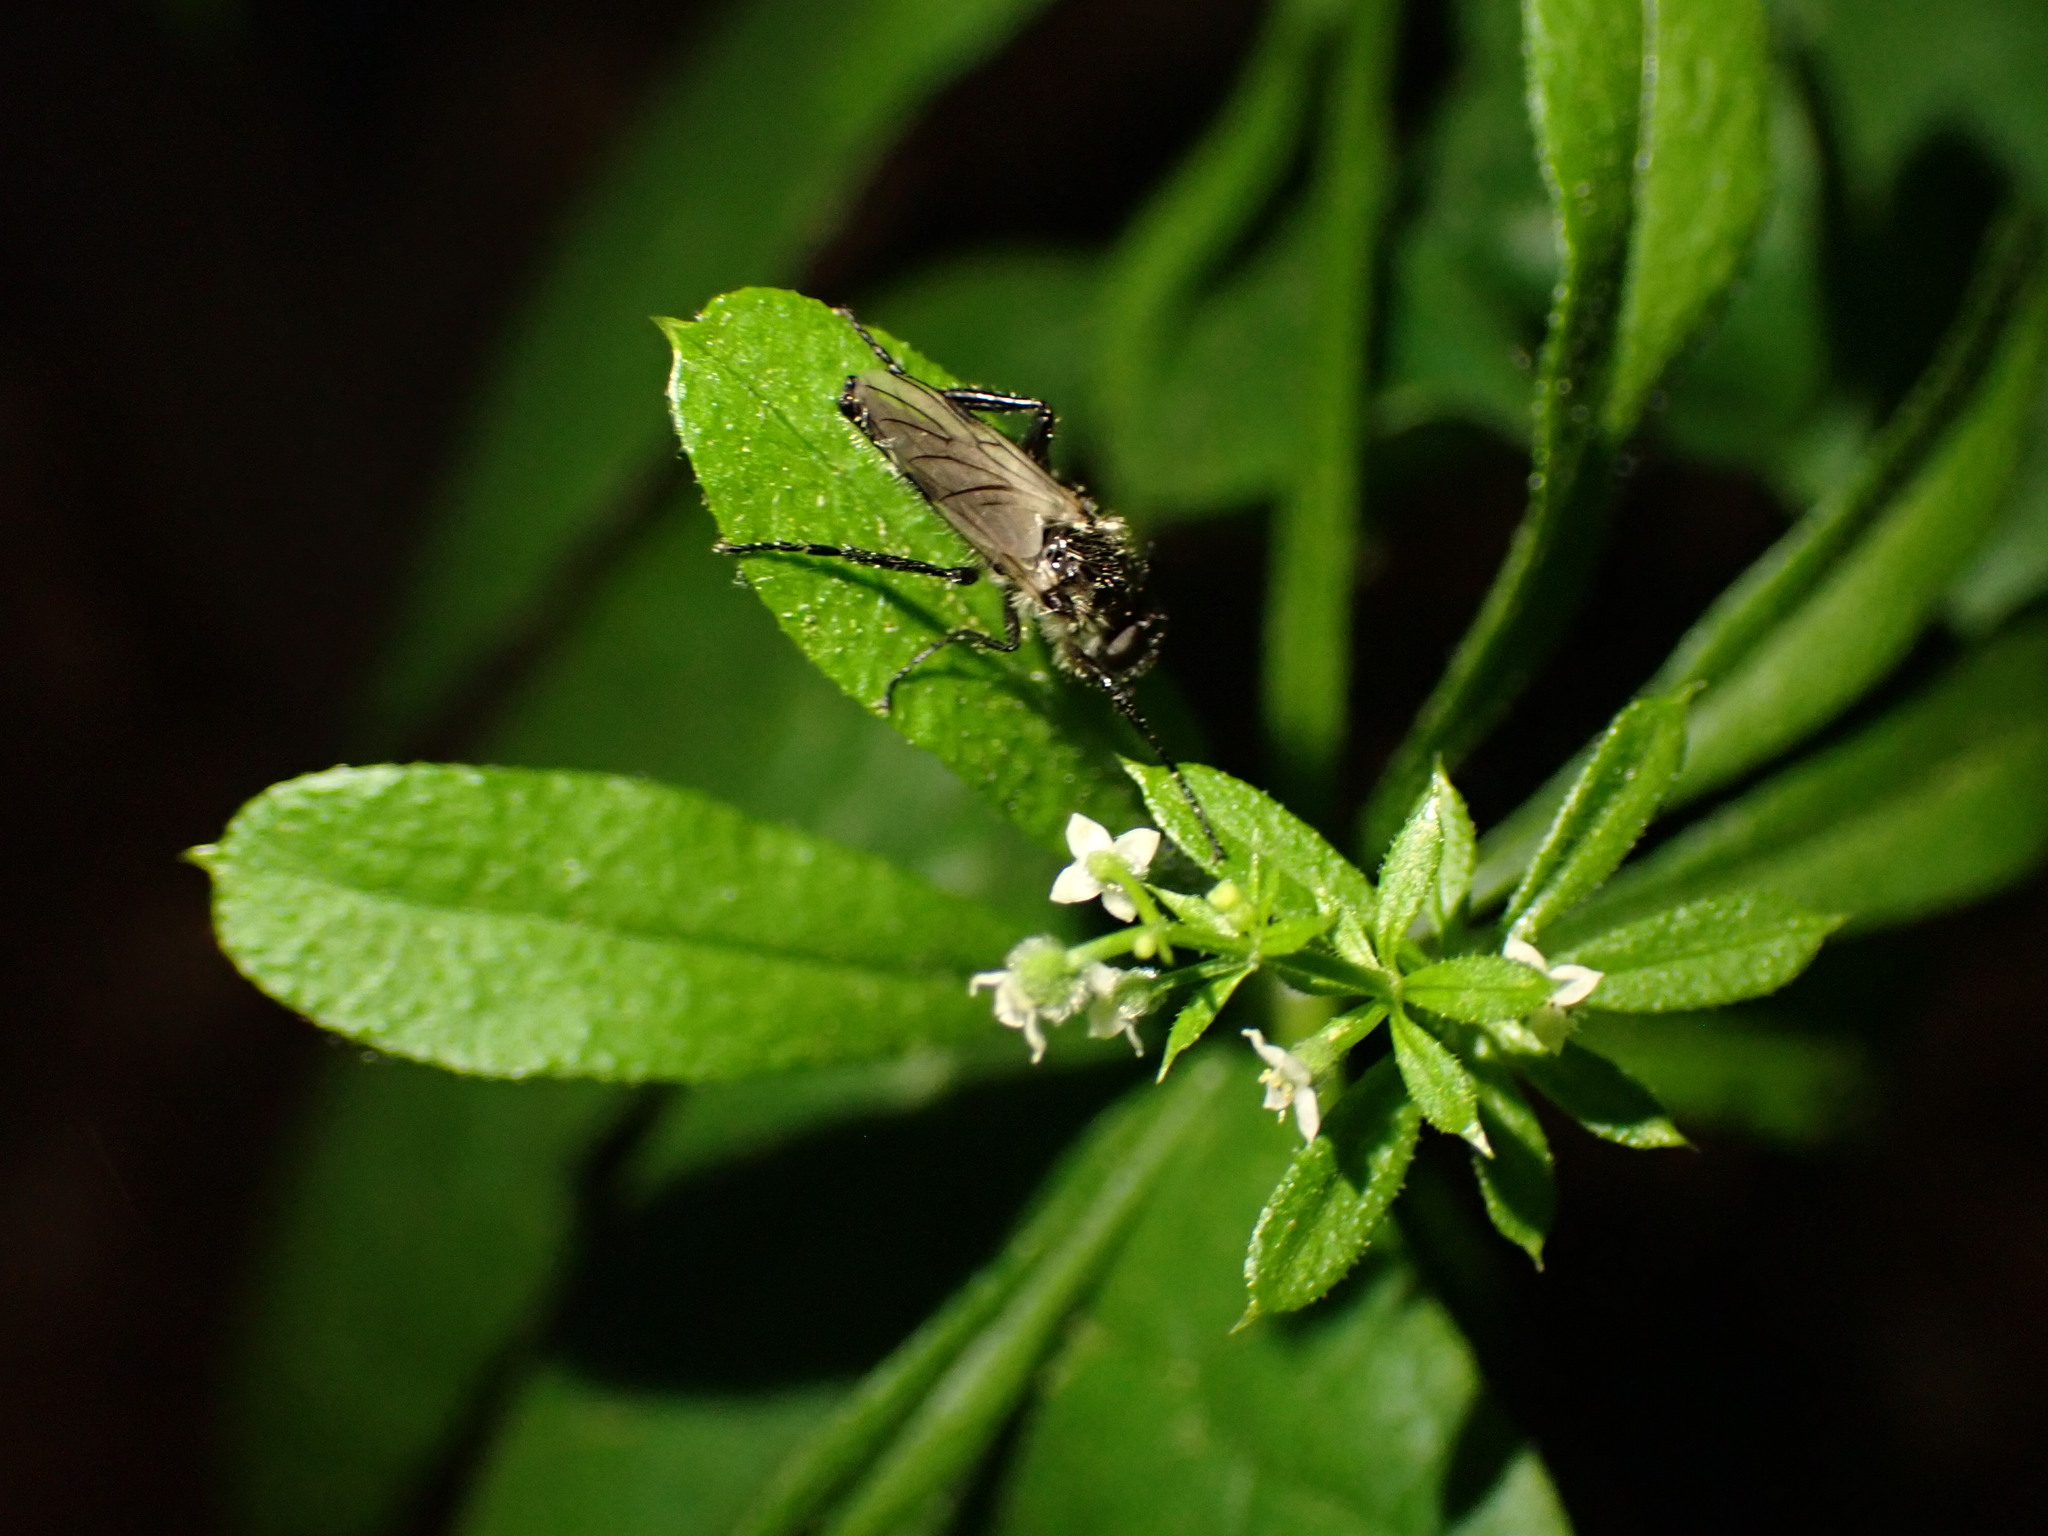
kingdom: Animalia
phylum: Arthropoda
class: Insecta
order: Diptera
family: Bibionidae
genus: Bibio
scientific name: Bibio albipennis
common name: White-winged march fly
